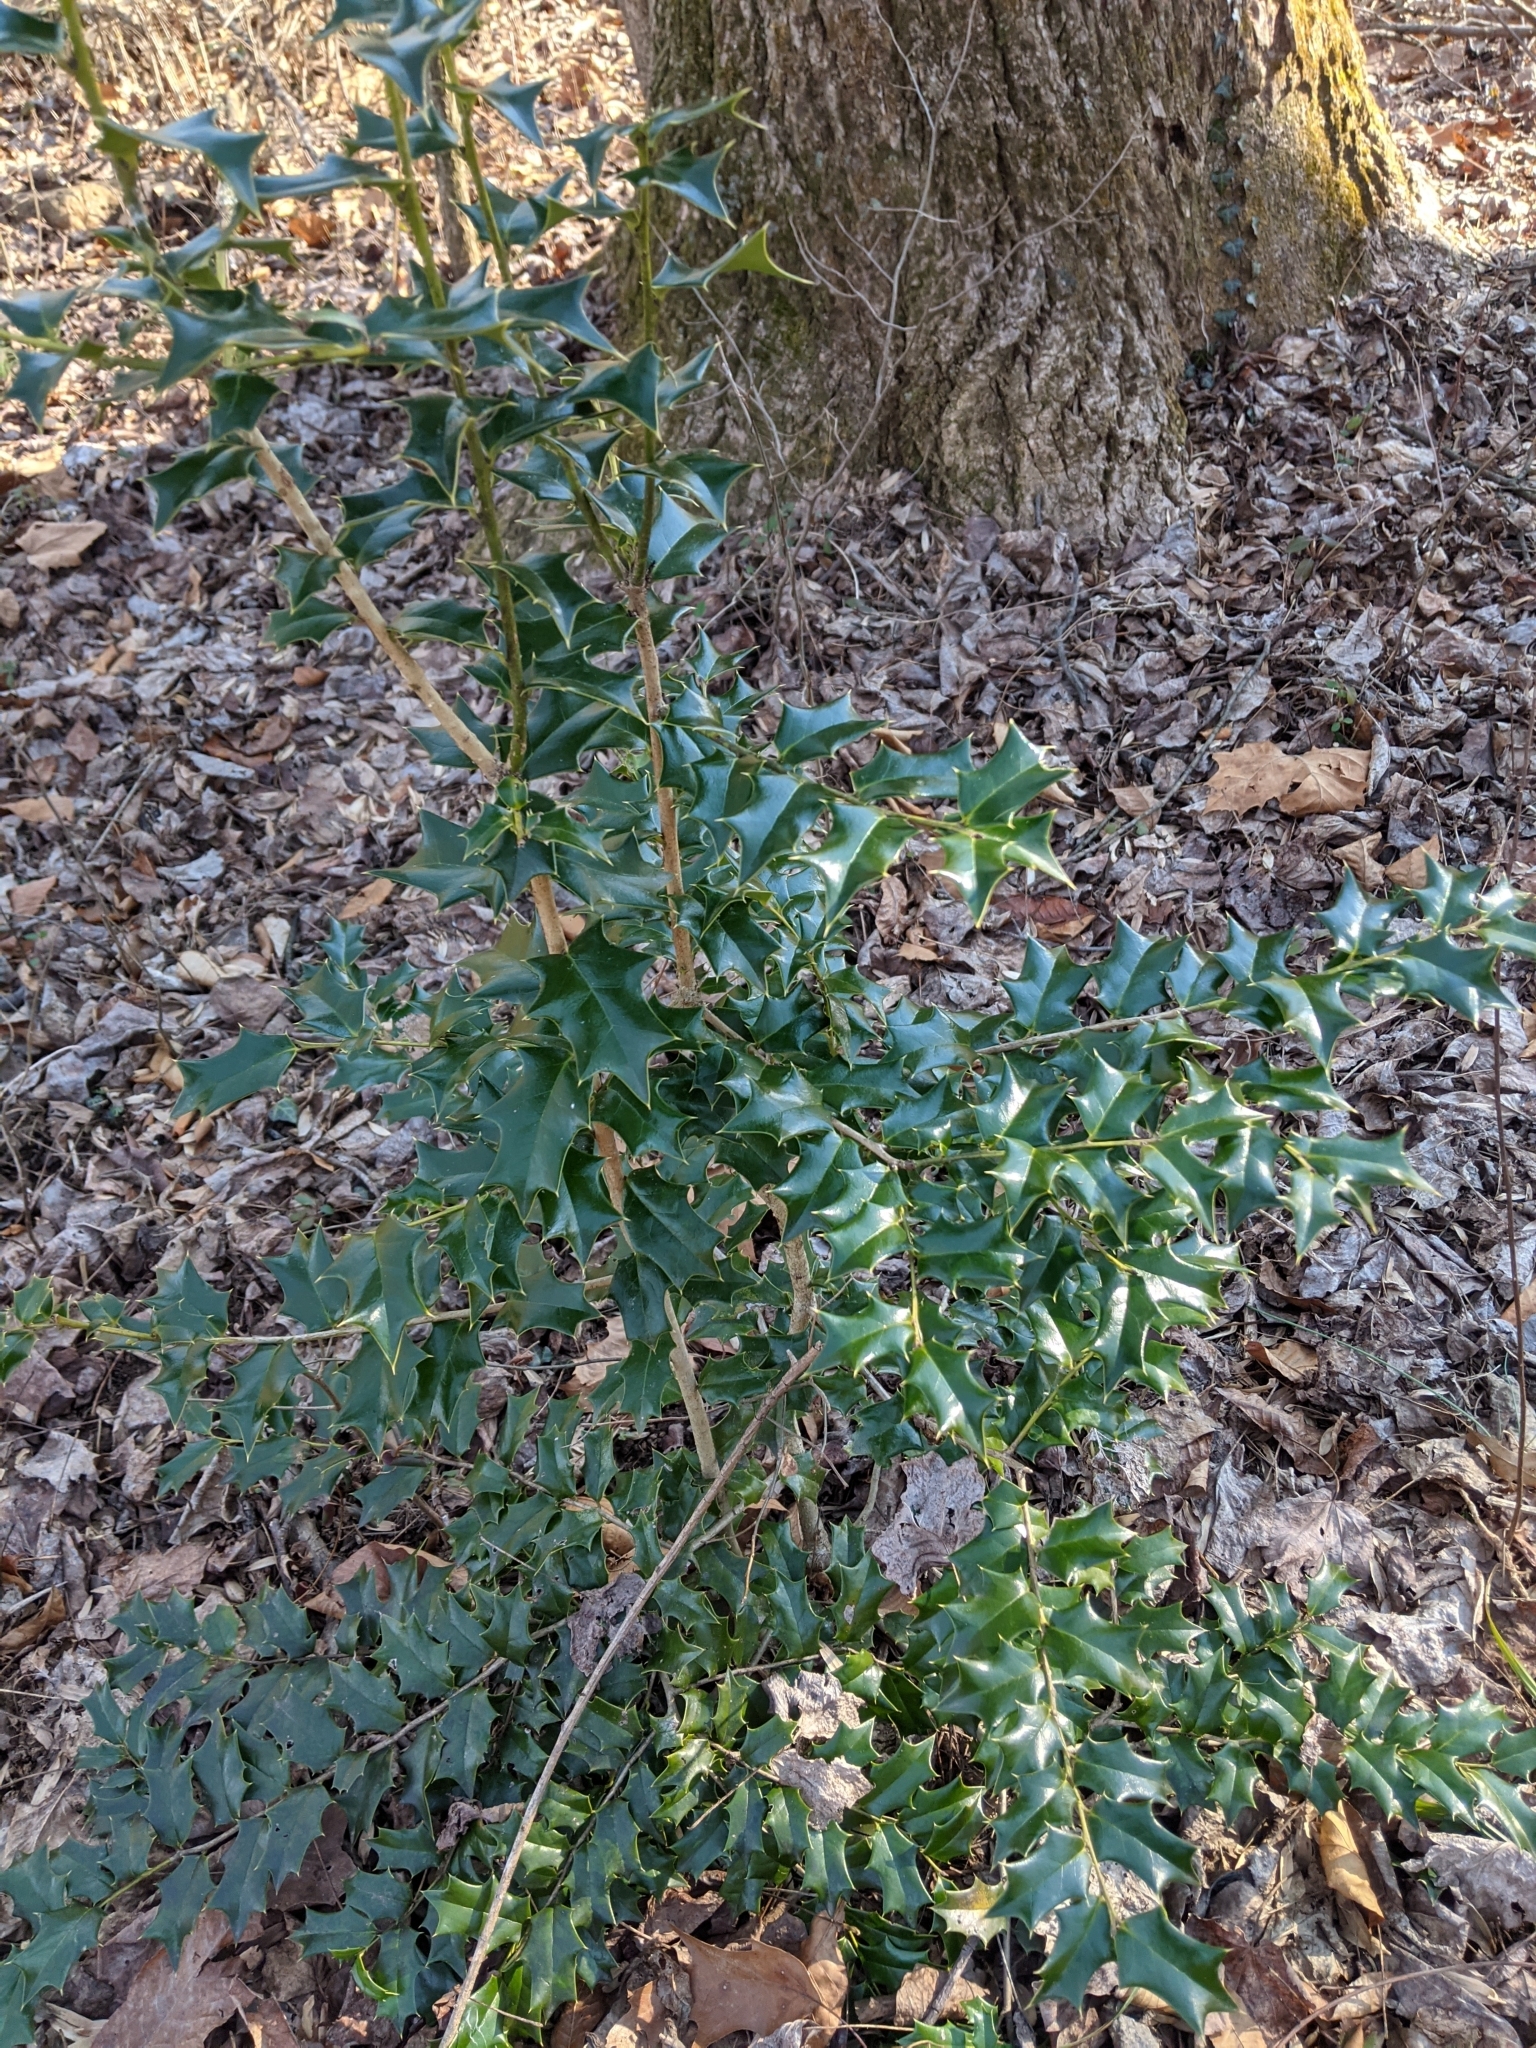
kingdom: Plantae
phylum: Tracheophyta
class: Magnoliopsida
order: Aquifoliales
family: Aquifoliaceae
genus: Ilex
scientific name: Ilex cornuta
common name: Chinese holly
